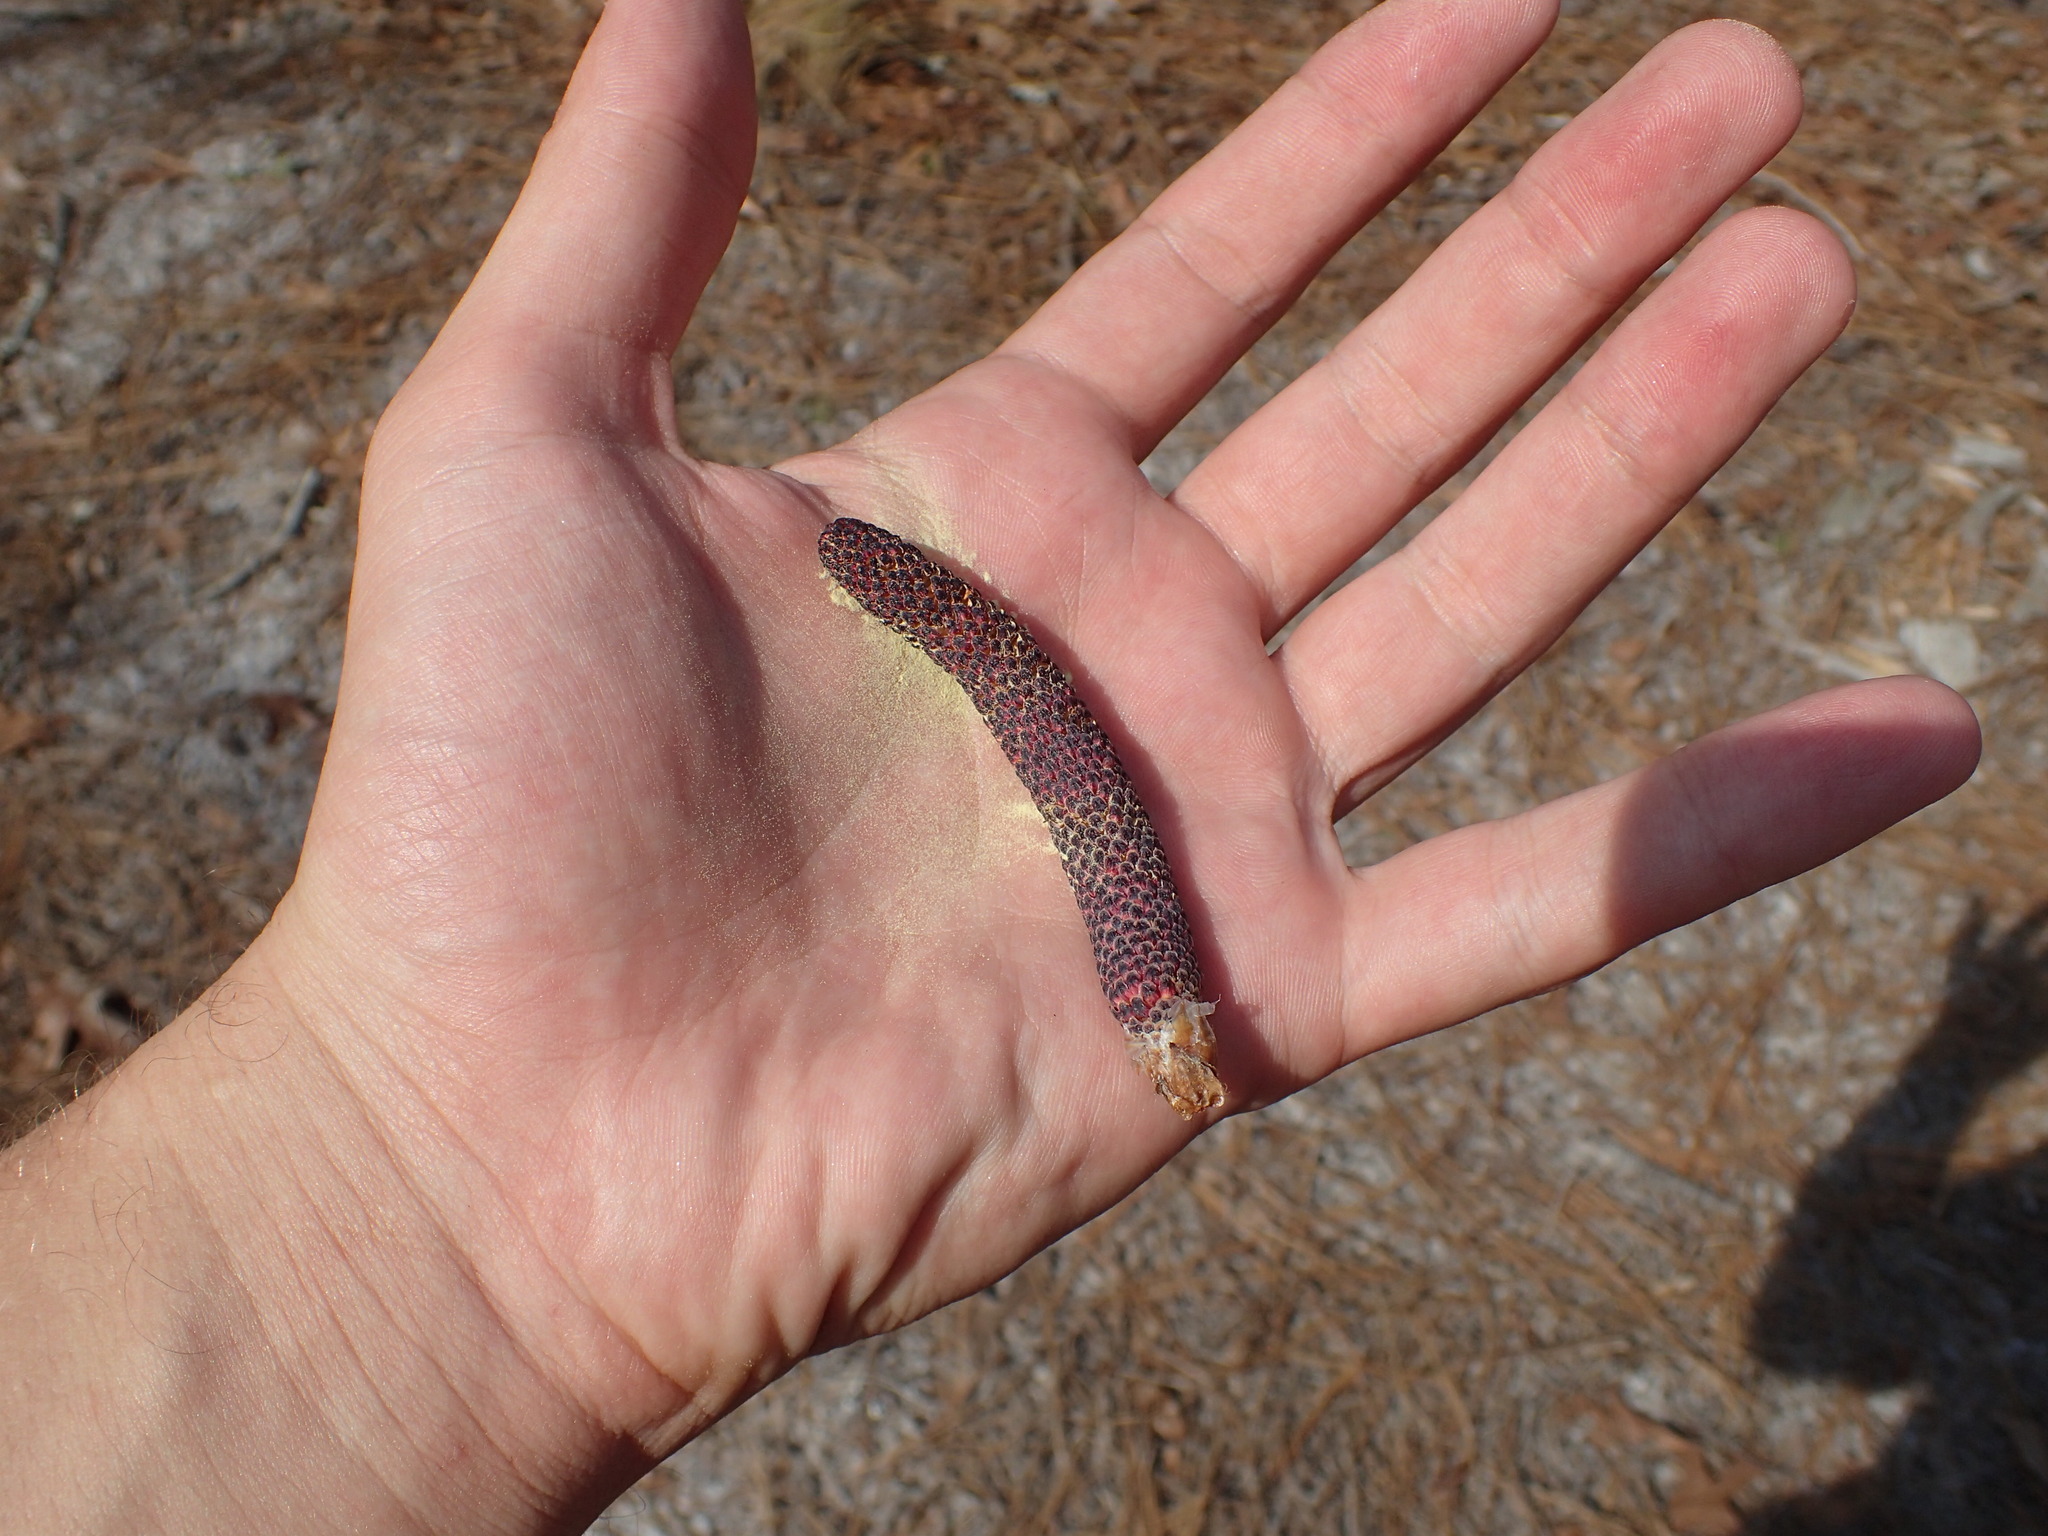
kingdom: Plantae
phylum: Tracheophyta
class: Pinopsida
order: Pinales
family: Pinaceae
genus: Pinus
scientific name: Pinus palustris
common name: Longleaf pine
